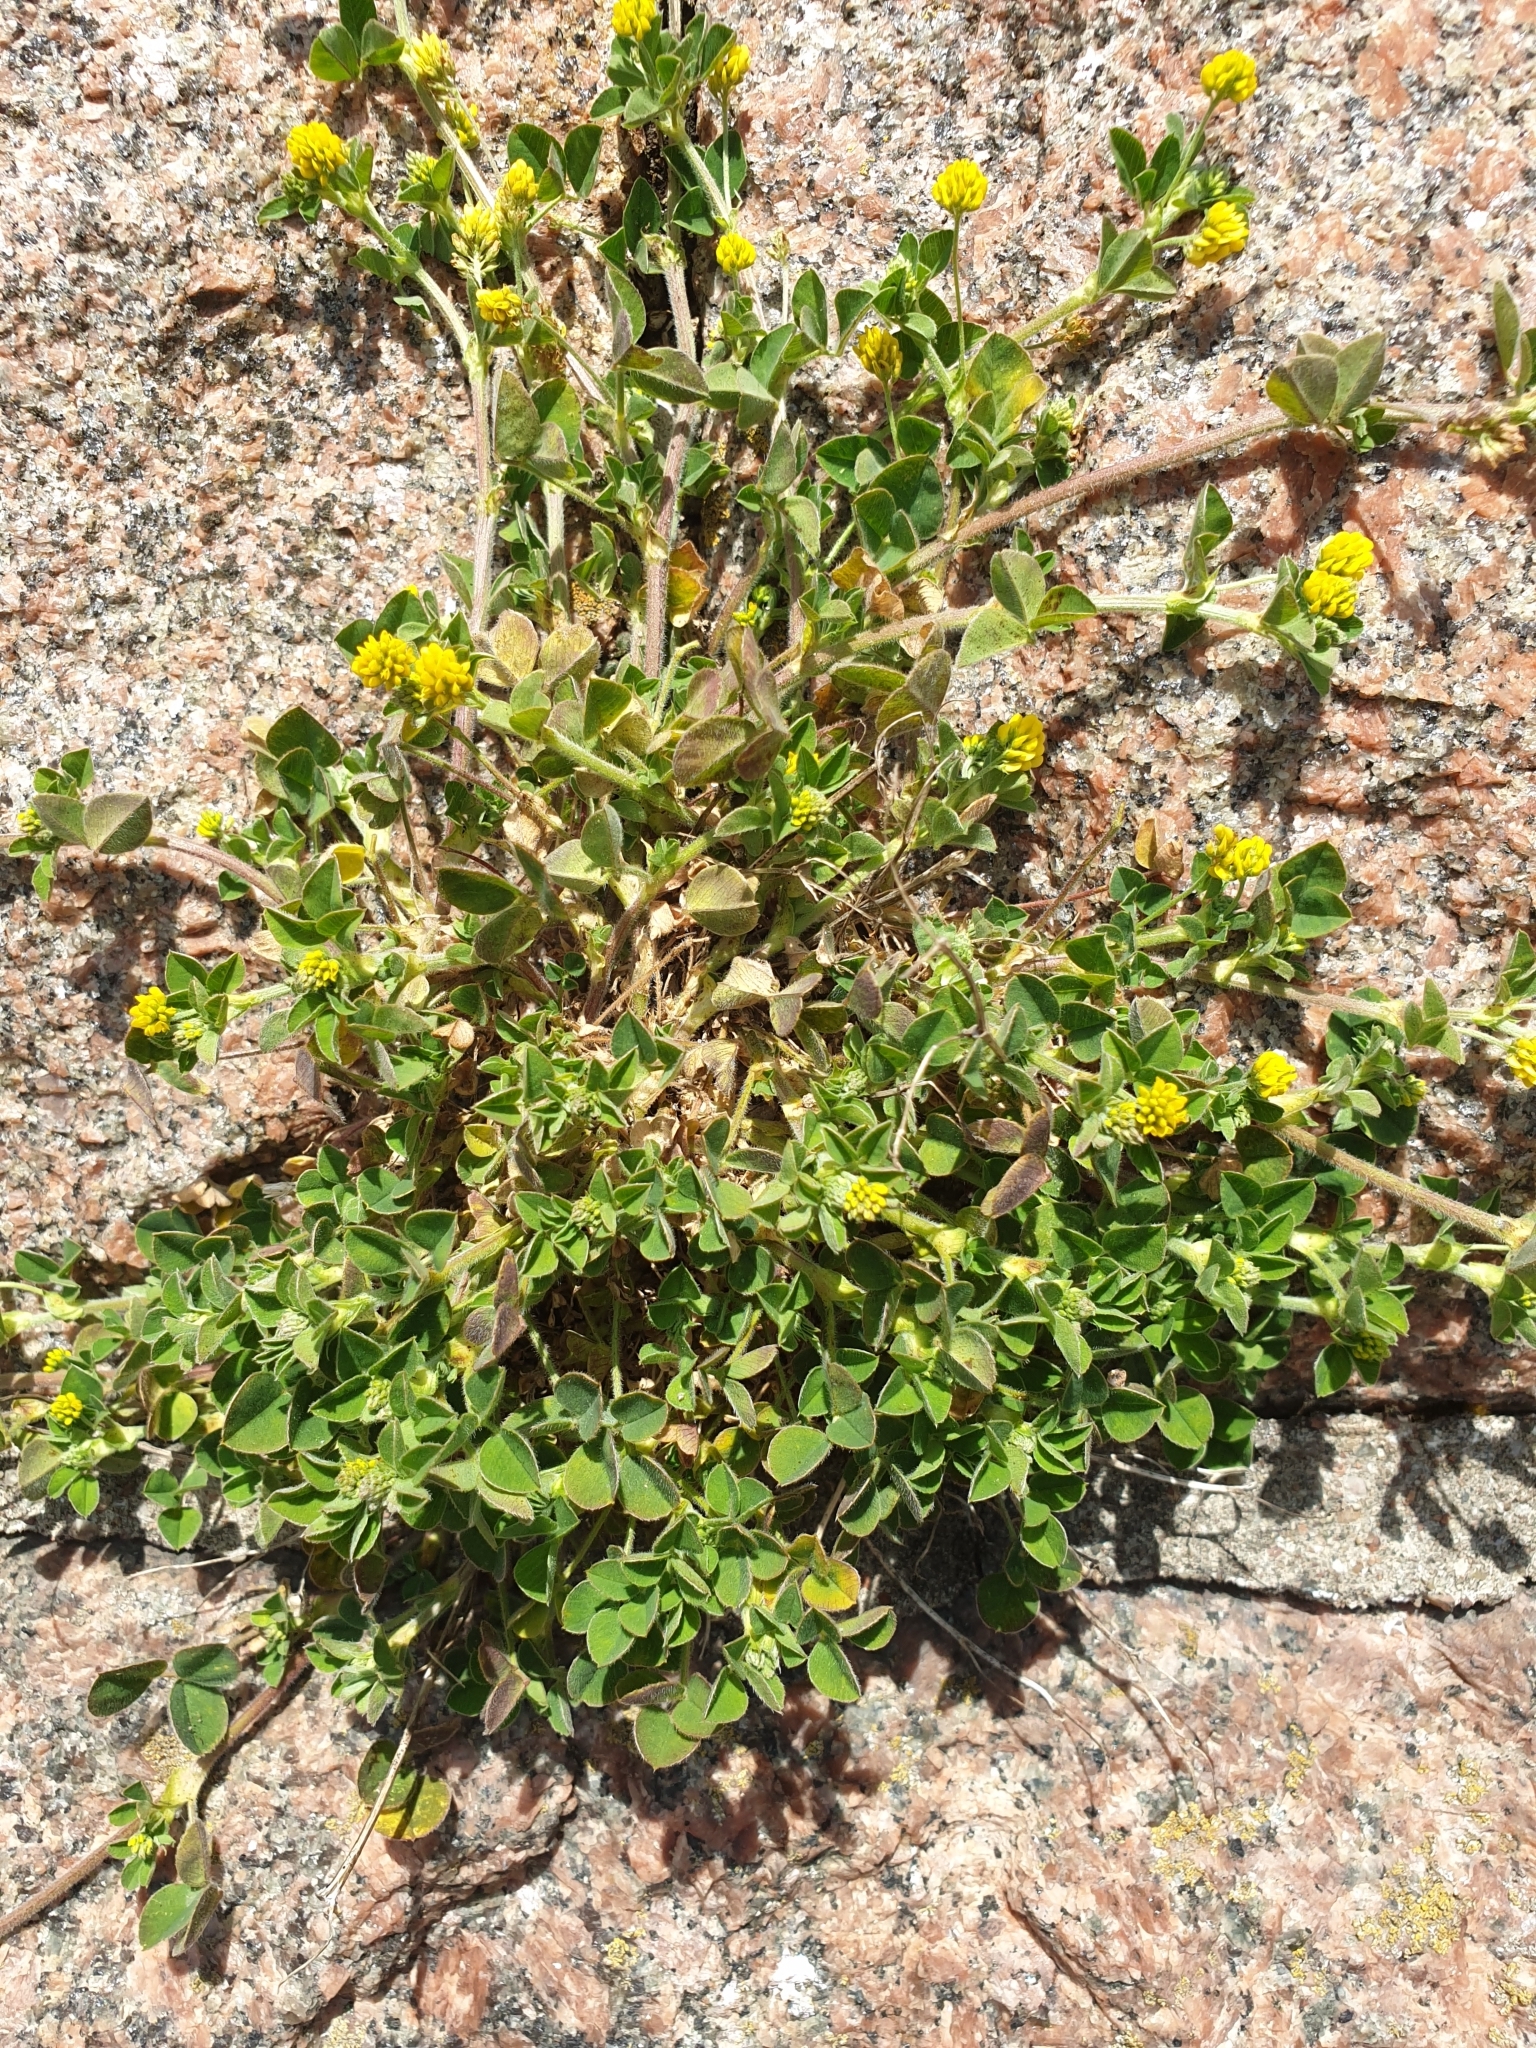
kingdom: Plantae
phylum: Tracheophyta
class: Magnoliopsida
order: Fabales
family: Fabaceae
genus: Medicago
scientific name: Medicago lupulina
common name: Black medick
